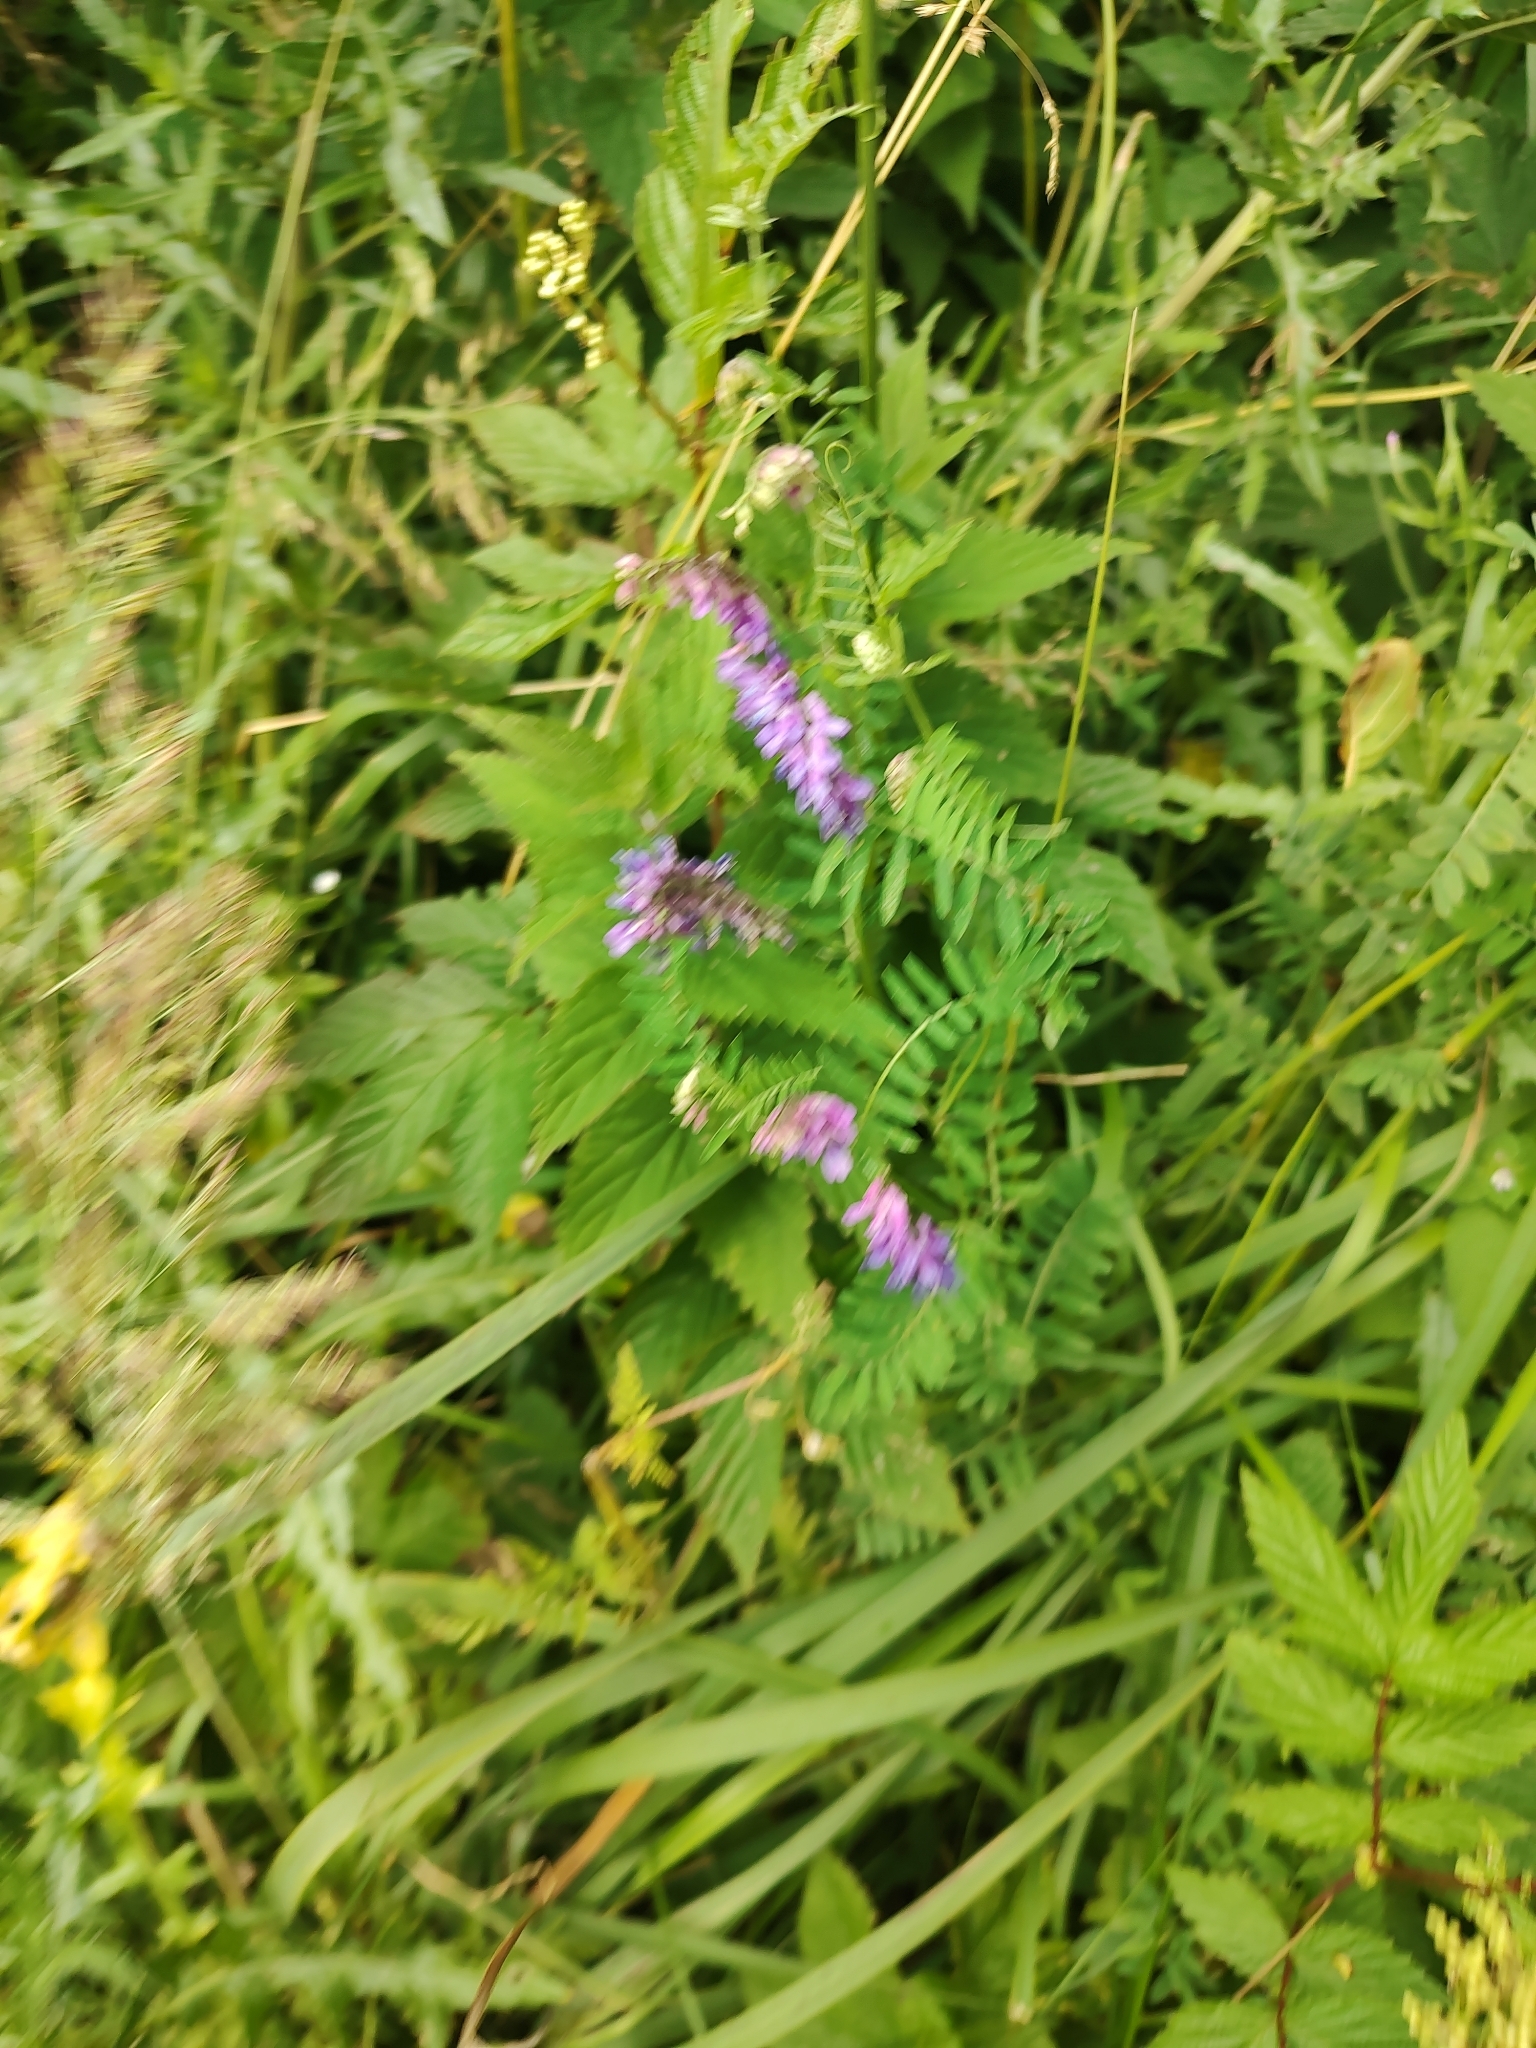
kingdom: Plantae
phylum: Tracheophyta
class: Magnoliopsida
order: Fabales
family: Fabaceae
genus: Vicia
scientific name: Vicia cracca
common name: Bird vetch
